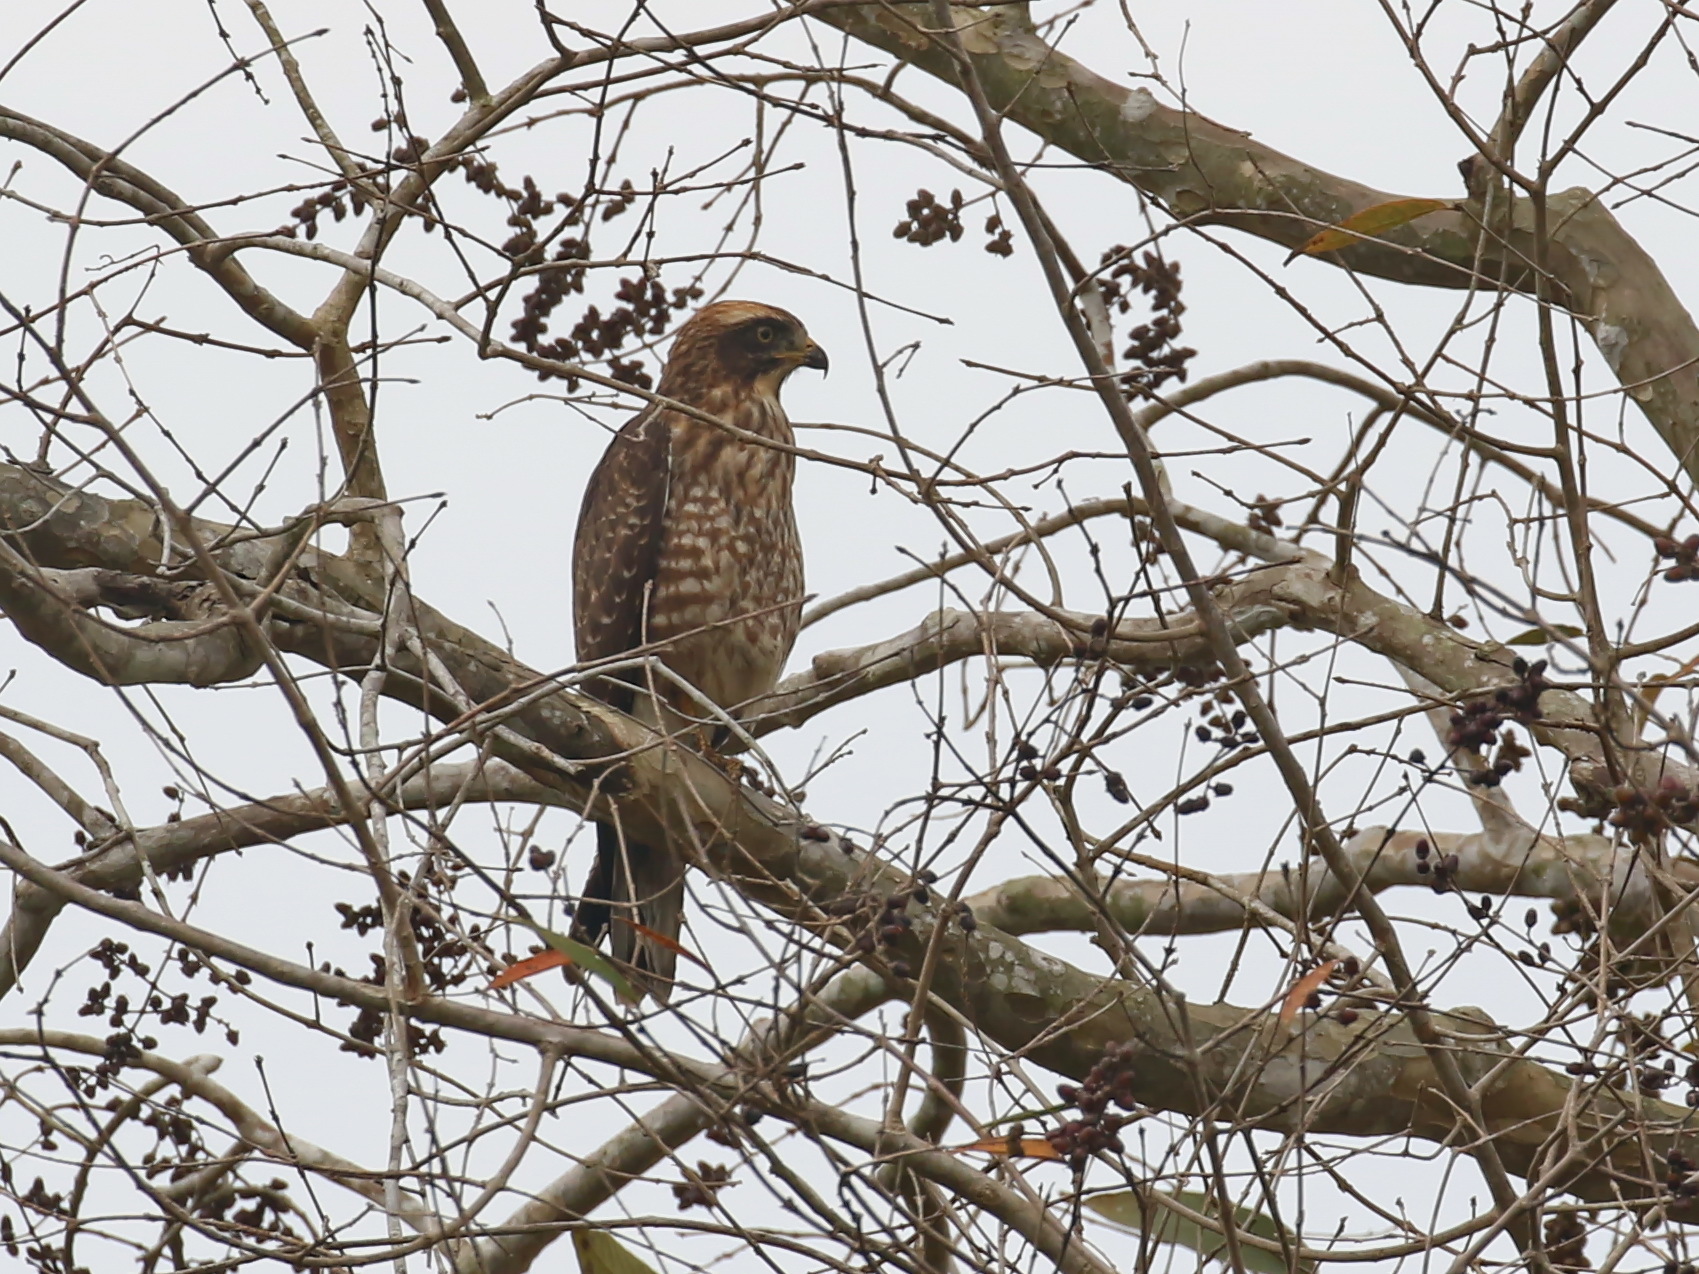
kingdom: Animalia
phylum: Chordata
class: Aves
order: Accipitriformes
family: Accipitridae
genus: Butastur
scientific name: Butastur indicus
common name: Grey-faced buzzard
